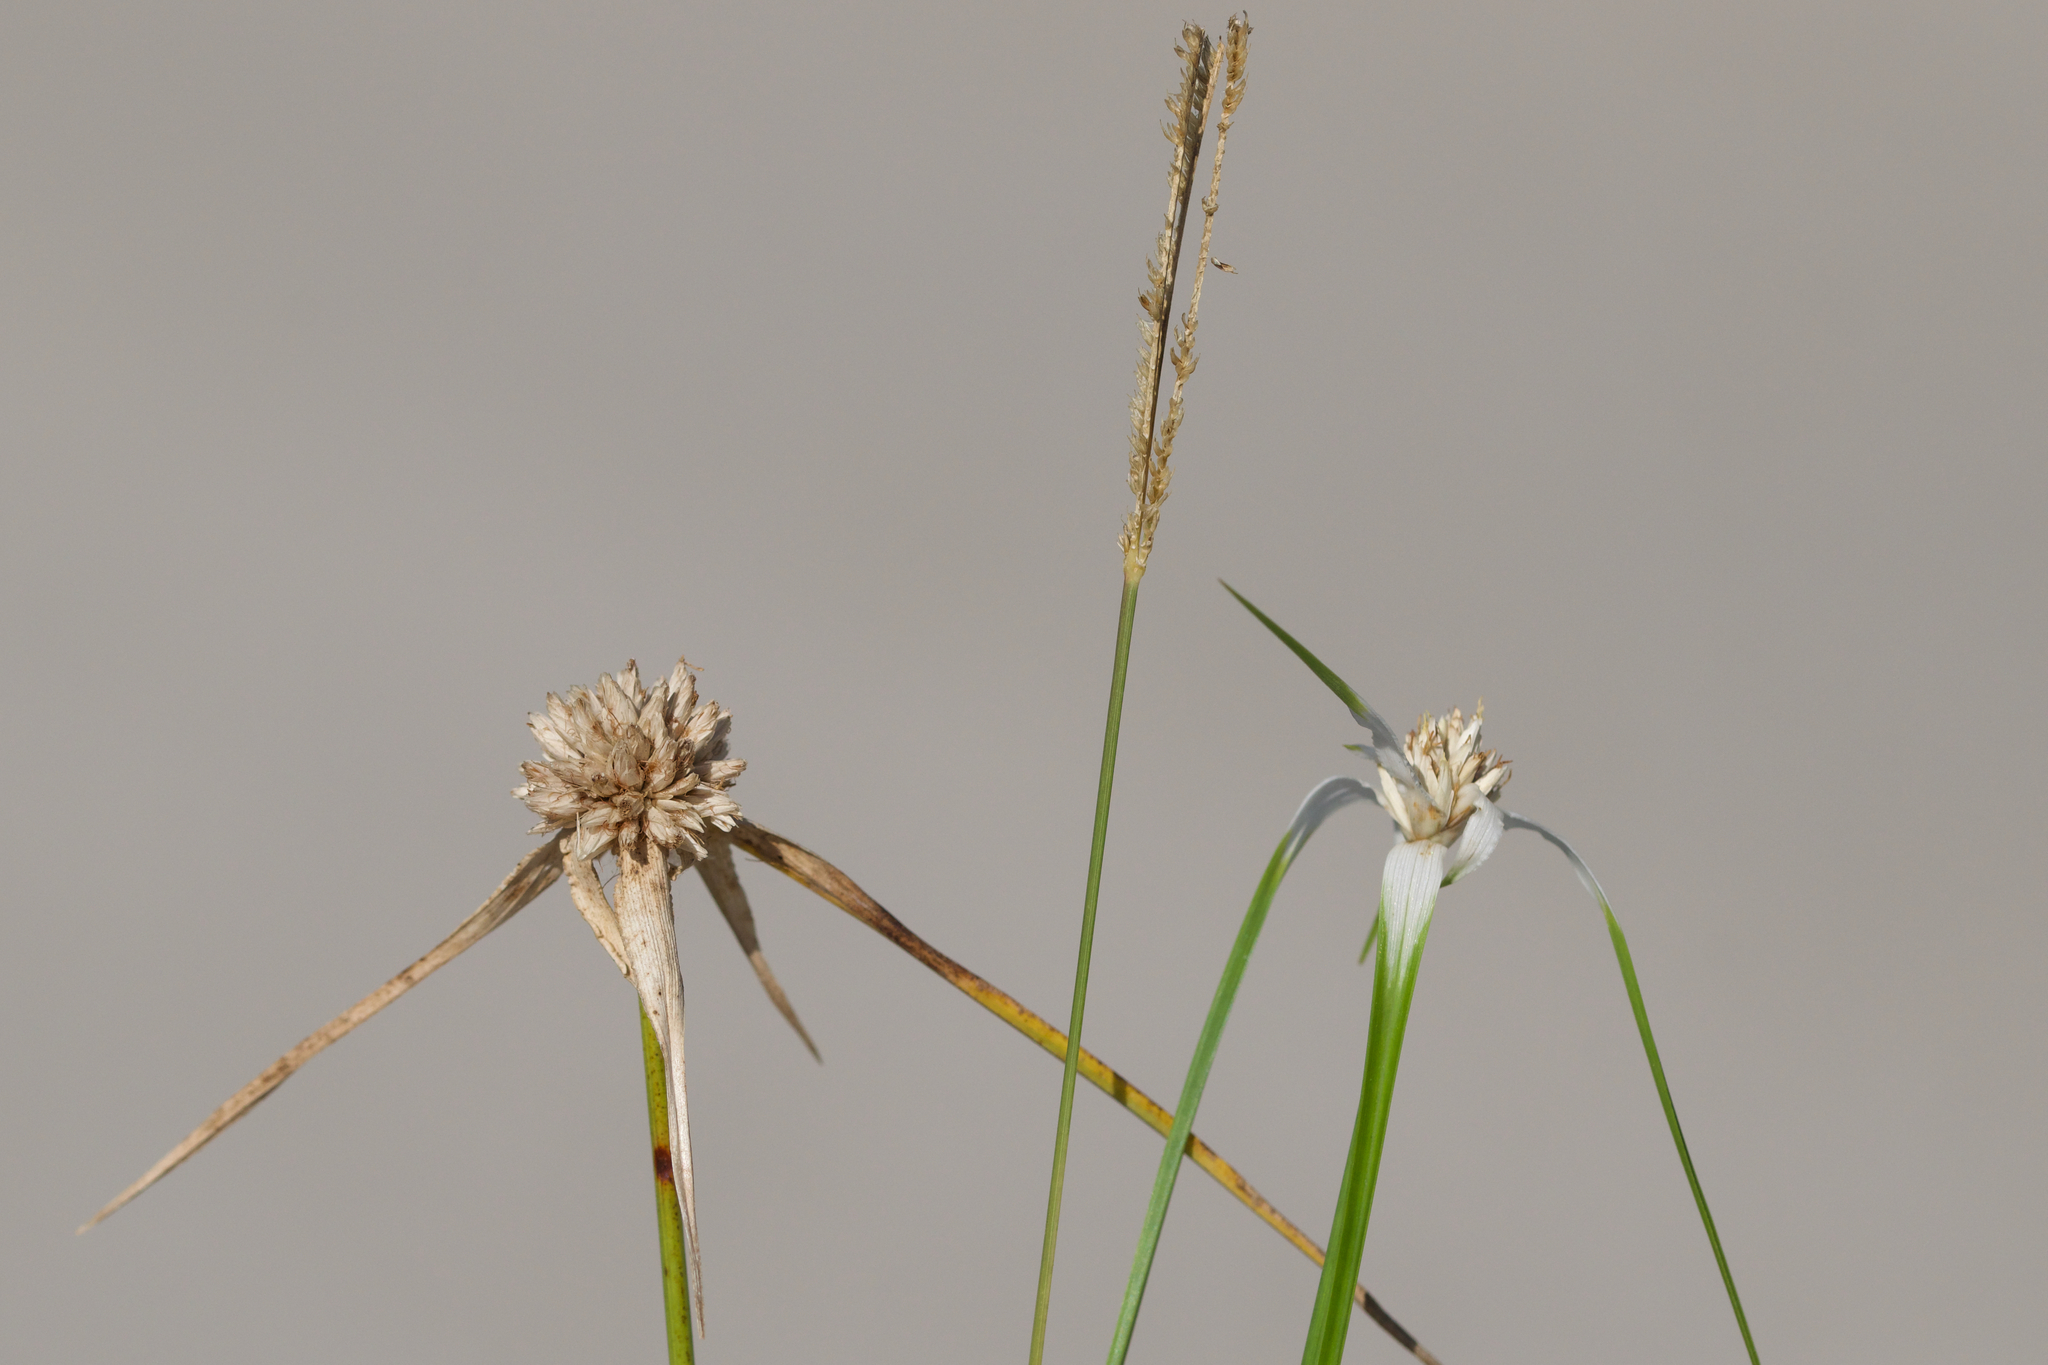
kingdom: Plantae
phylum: Tracheophyta
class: Liliopsida
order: Poales
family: Cyperaceae
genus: Rhynchospora
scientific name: Rhynchospora colorata
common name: Star sedge
